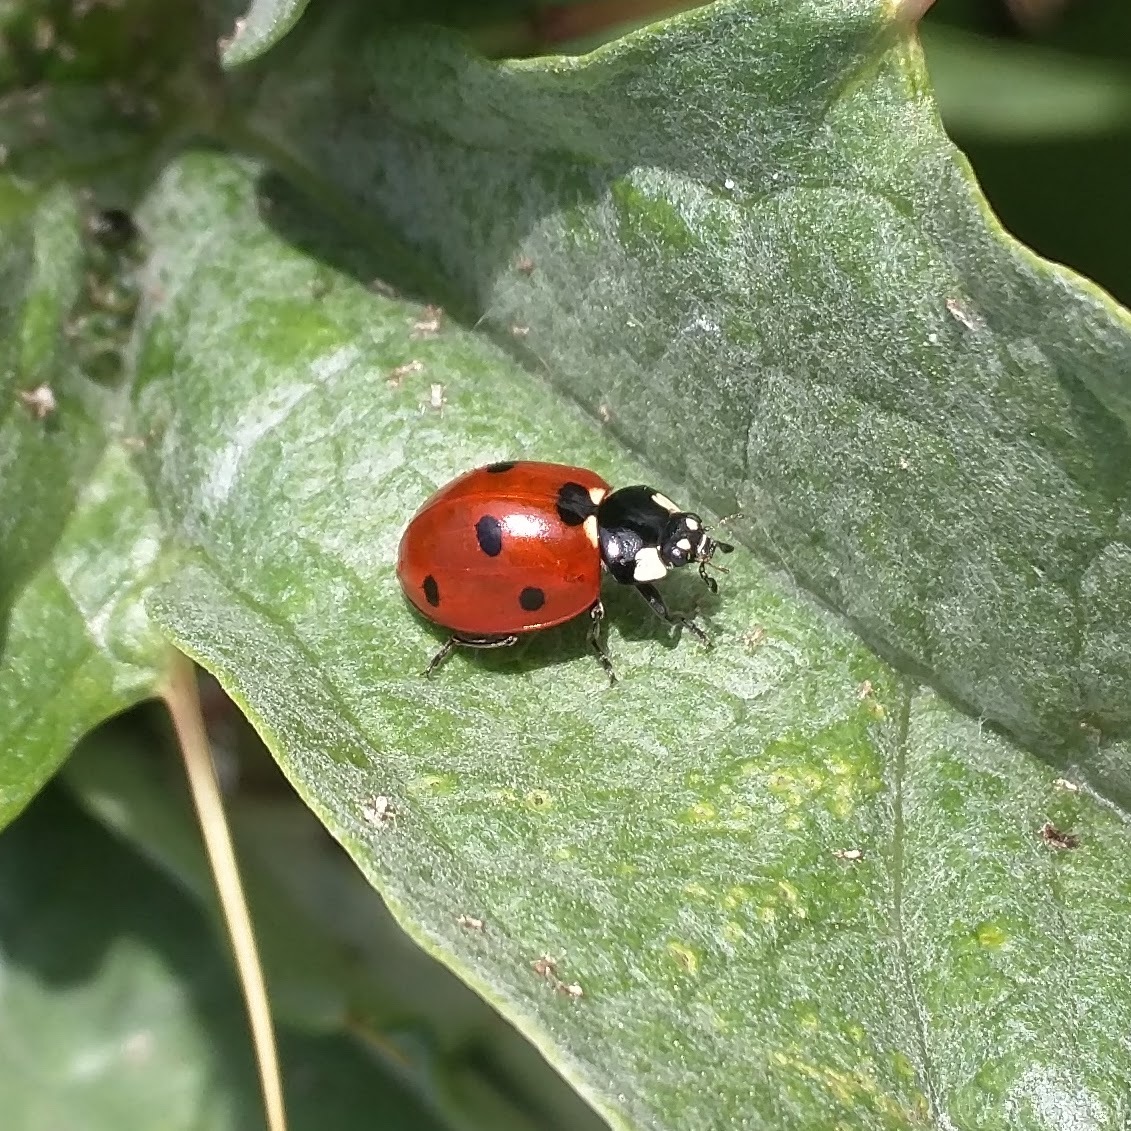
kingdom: Animalia
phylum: Arthropoda
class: Insecta
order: Coleoptera
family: Coccinellidae
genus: Coccinella
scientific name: Coccinella septempunctata
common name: Sevenspotted lady beetle
